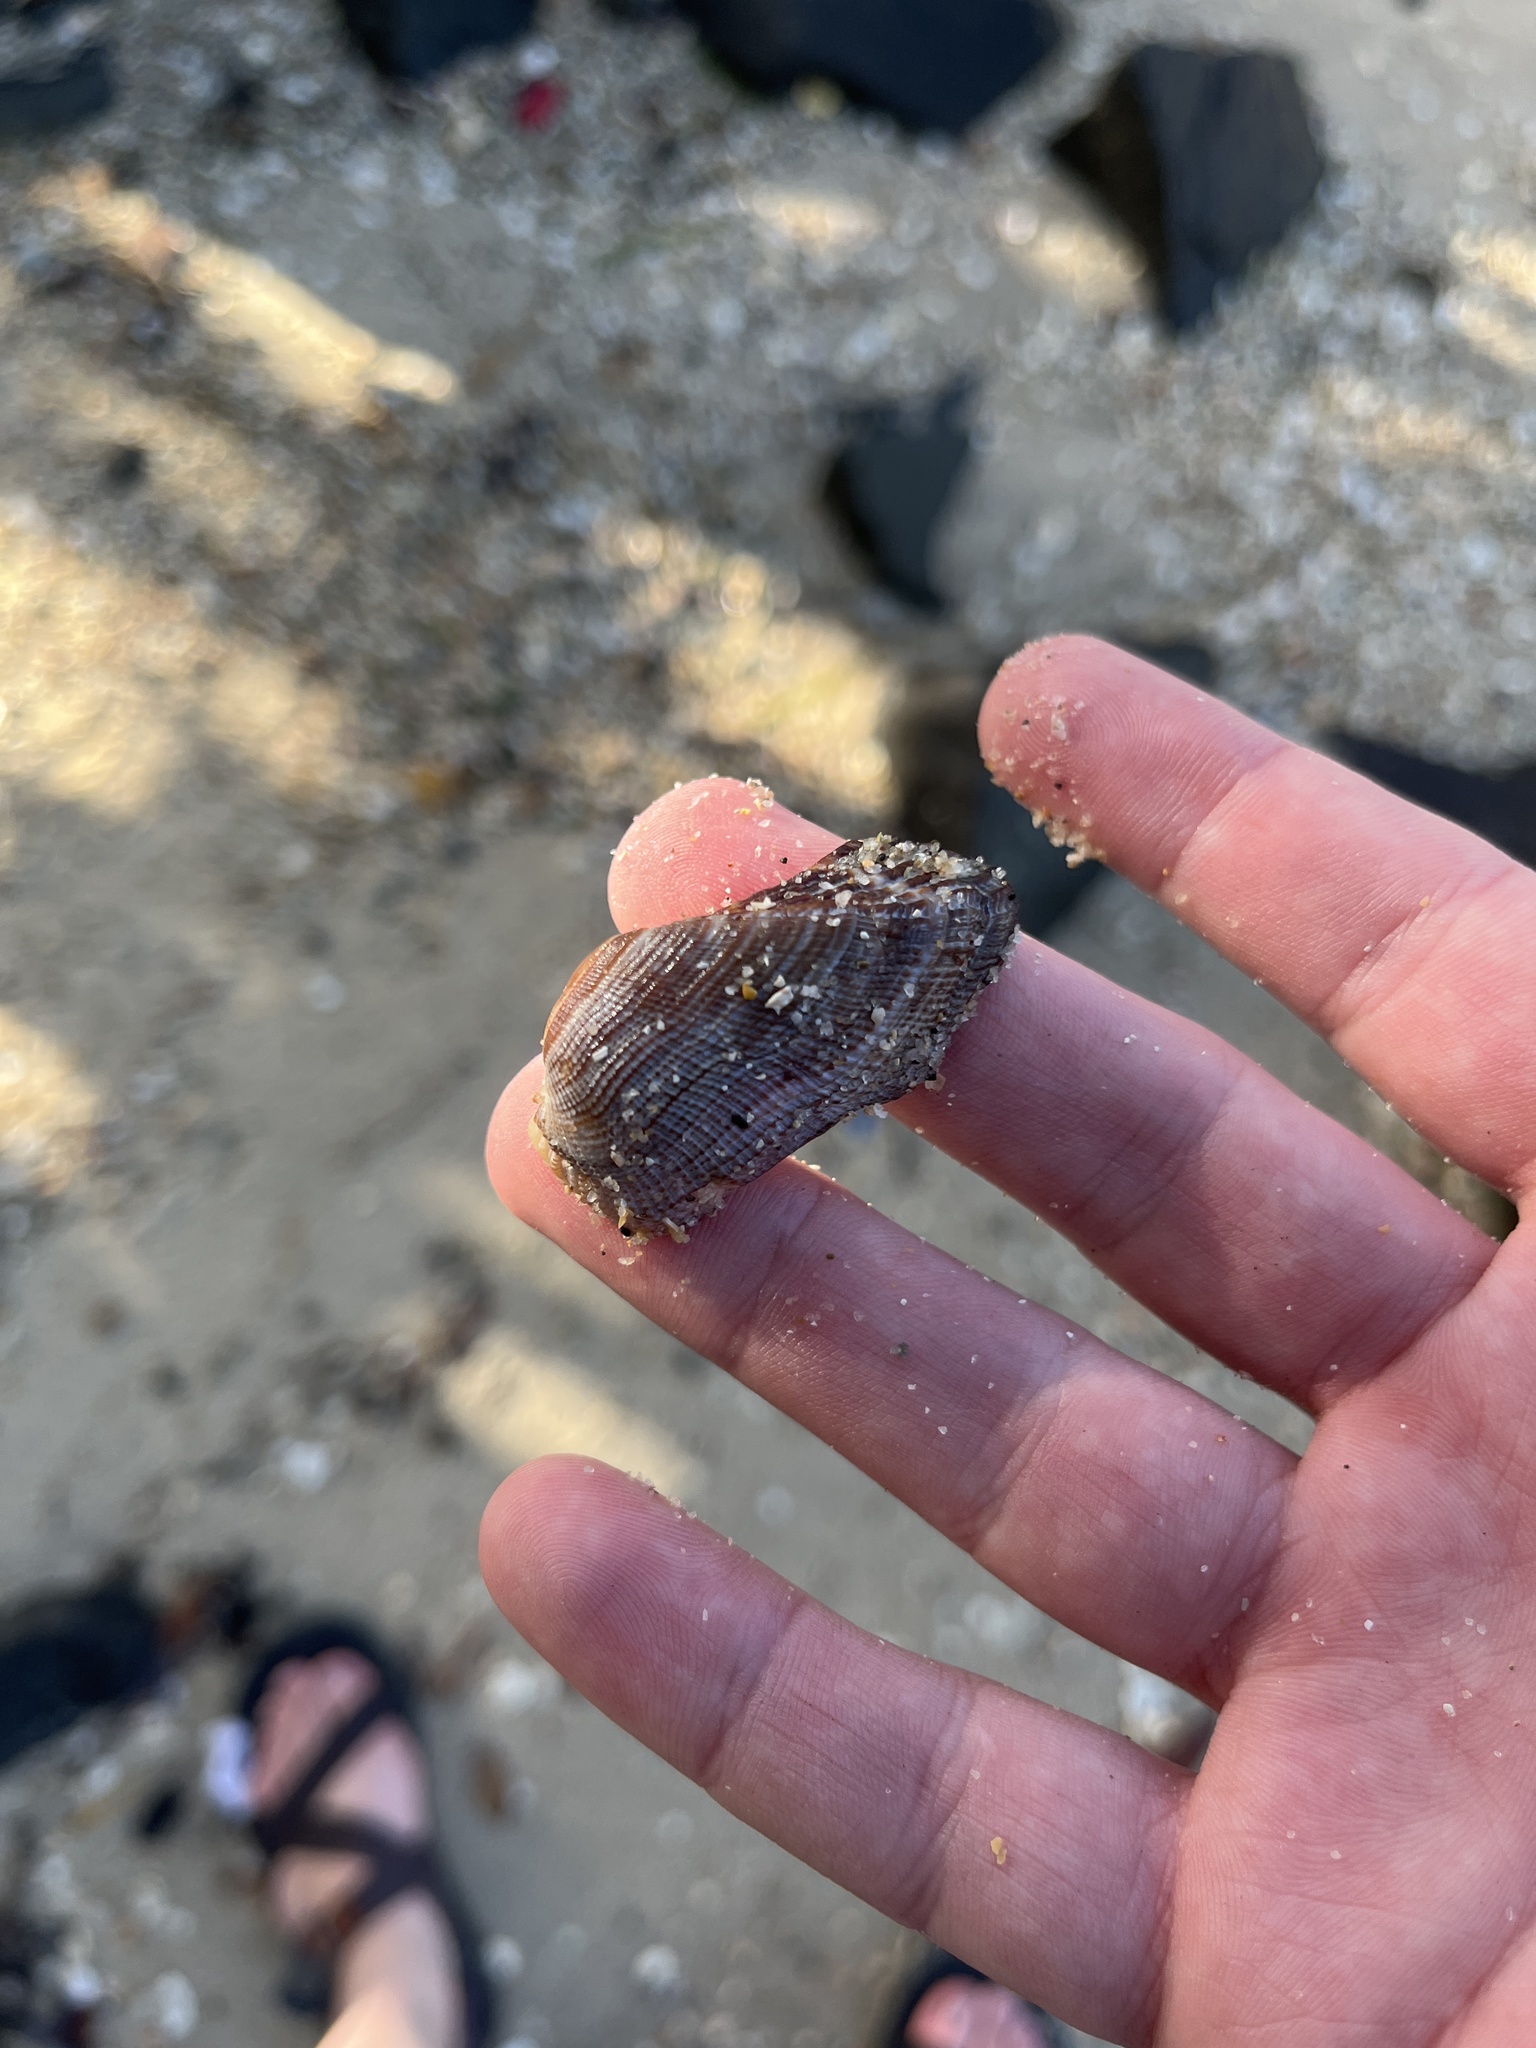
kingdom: Animalia
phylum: Mollusca
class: Bivalvia
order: Arcida
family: Arcidae
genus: Lamarcka
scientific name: Lamarcka imbricata
